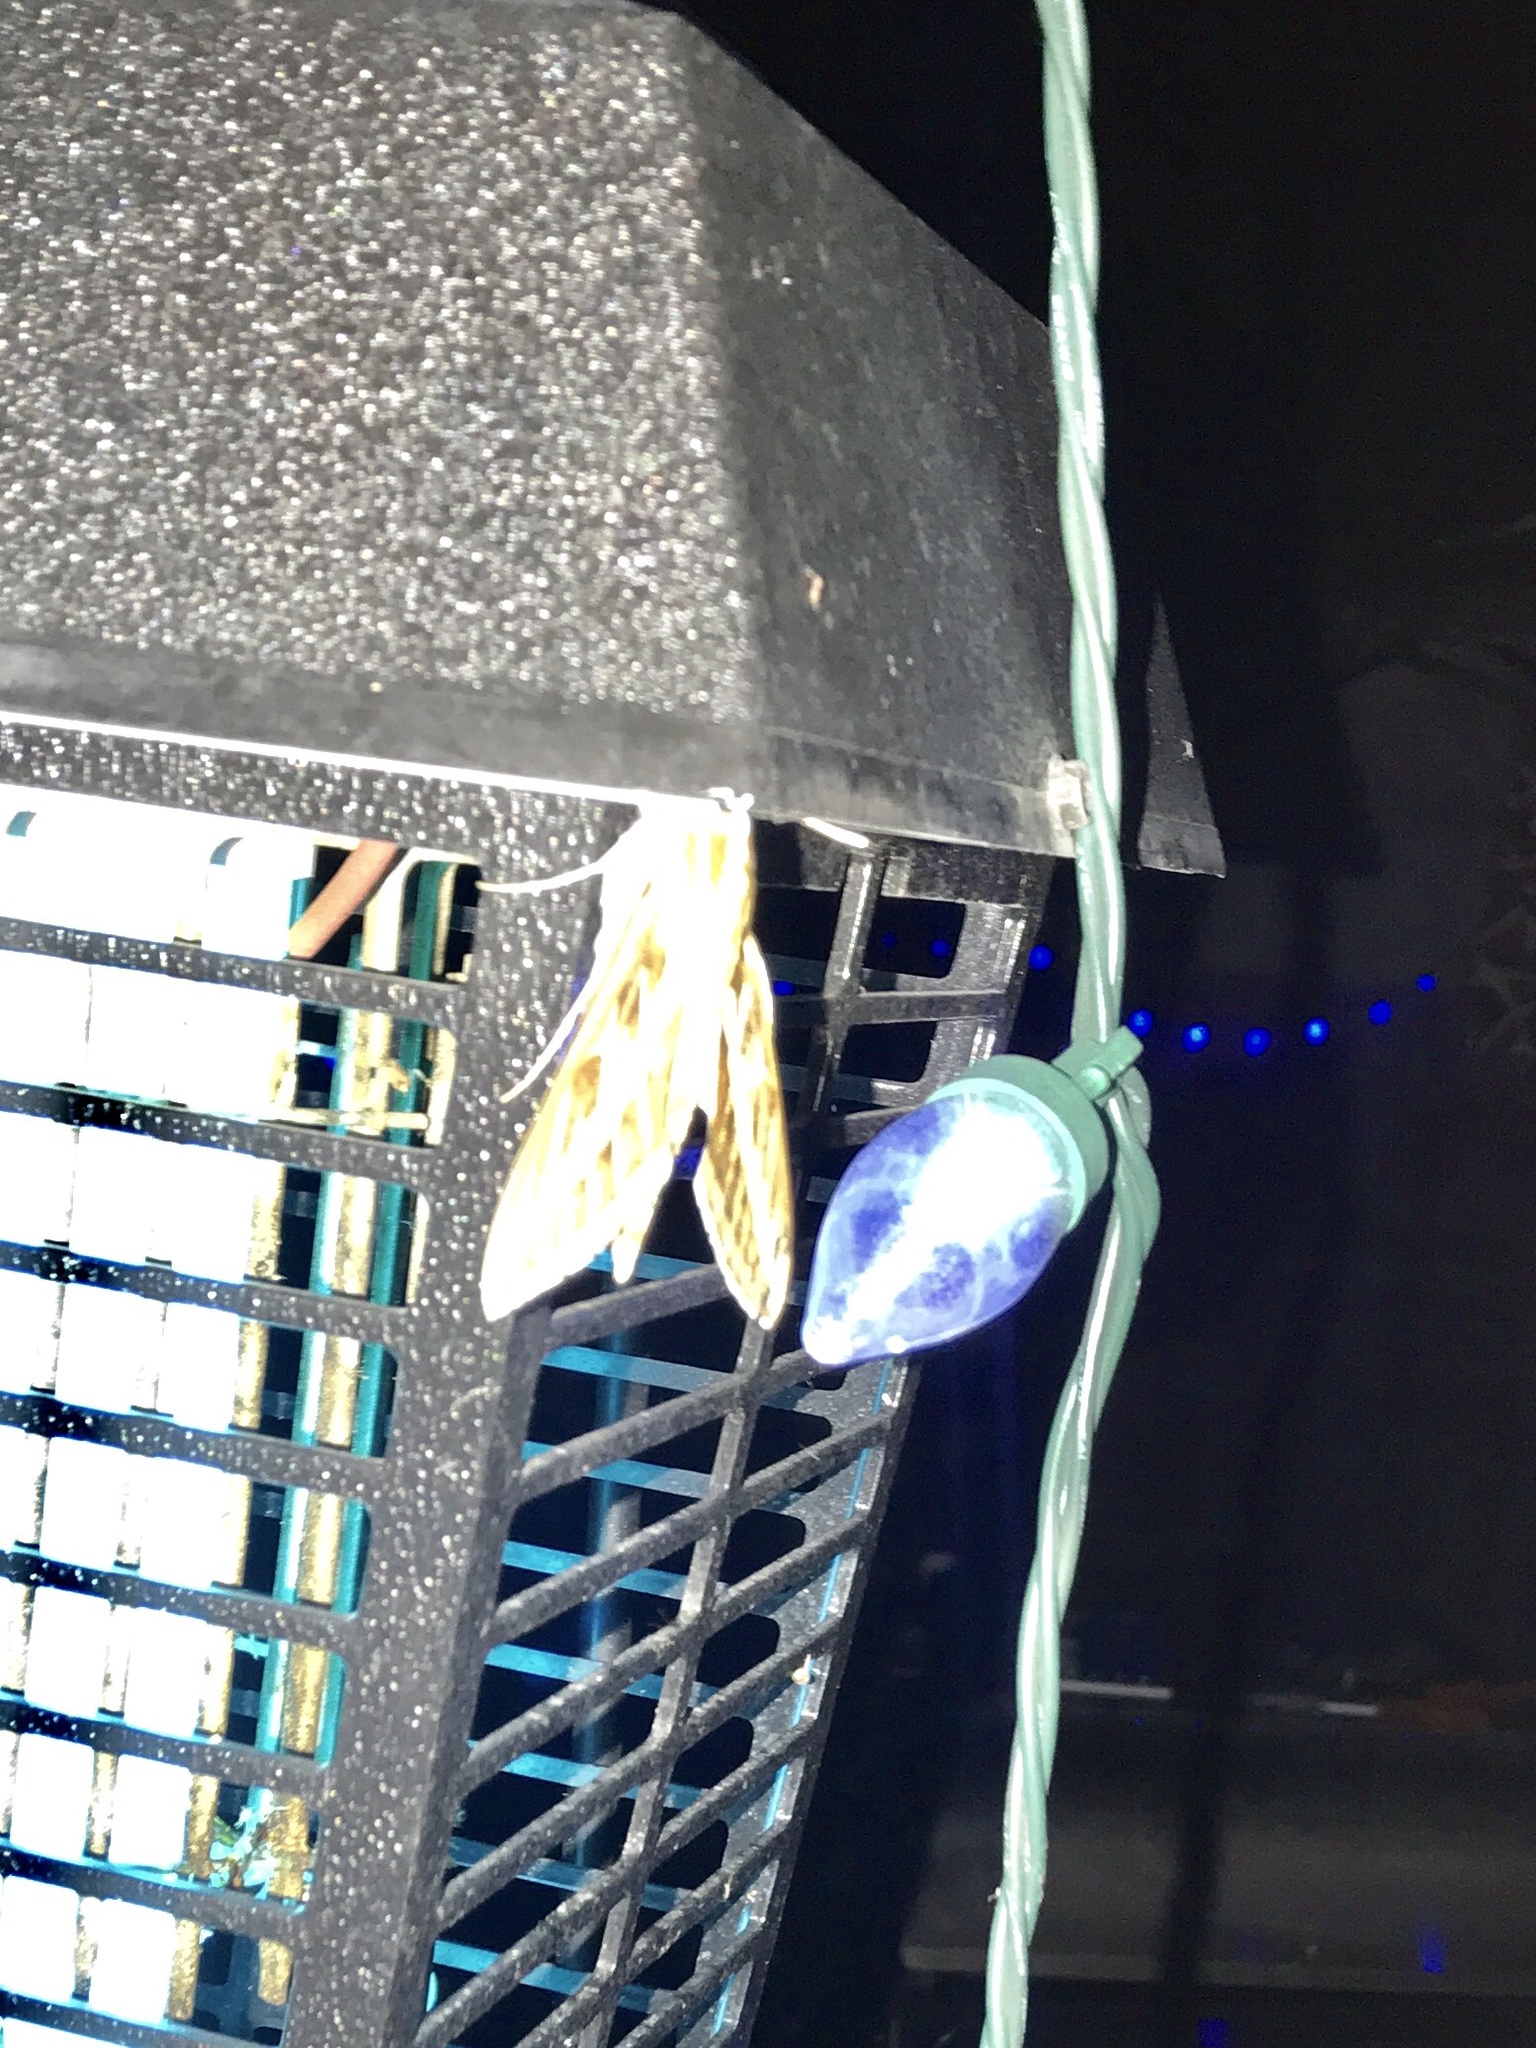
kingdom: Animalia
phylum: Arthropoda
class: Insecta
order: Lepidoptera
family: Sphingidae
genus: Hyles
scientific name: Hyles lineata
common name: White-lined sphinx
